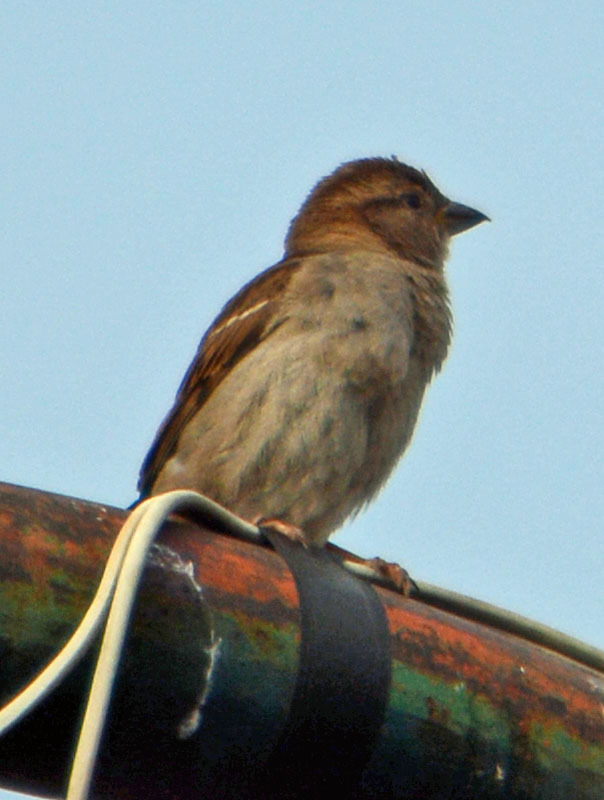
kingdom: Animalia
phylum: Chordata
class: Aves
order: Passeriformes
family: Passeridae
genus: Passer
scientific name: Passer domesticus
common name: House sparrow
